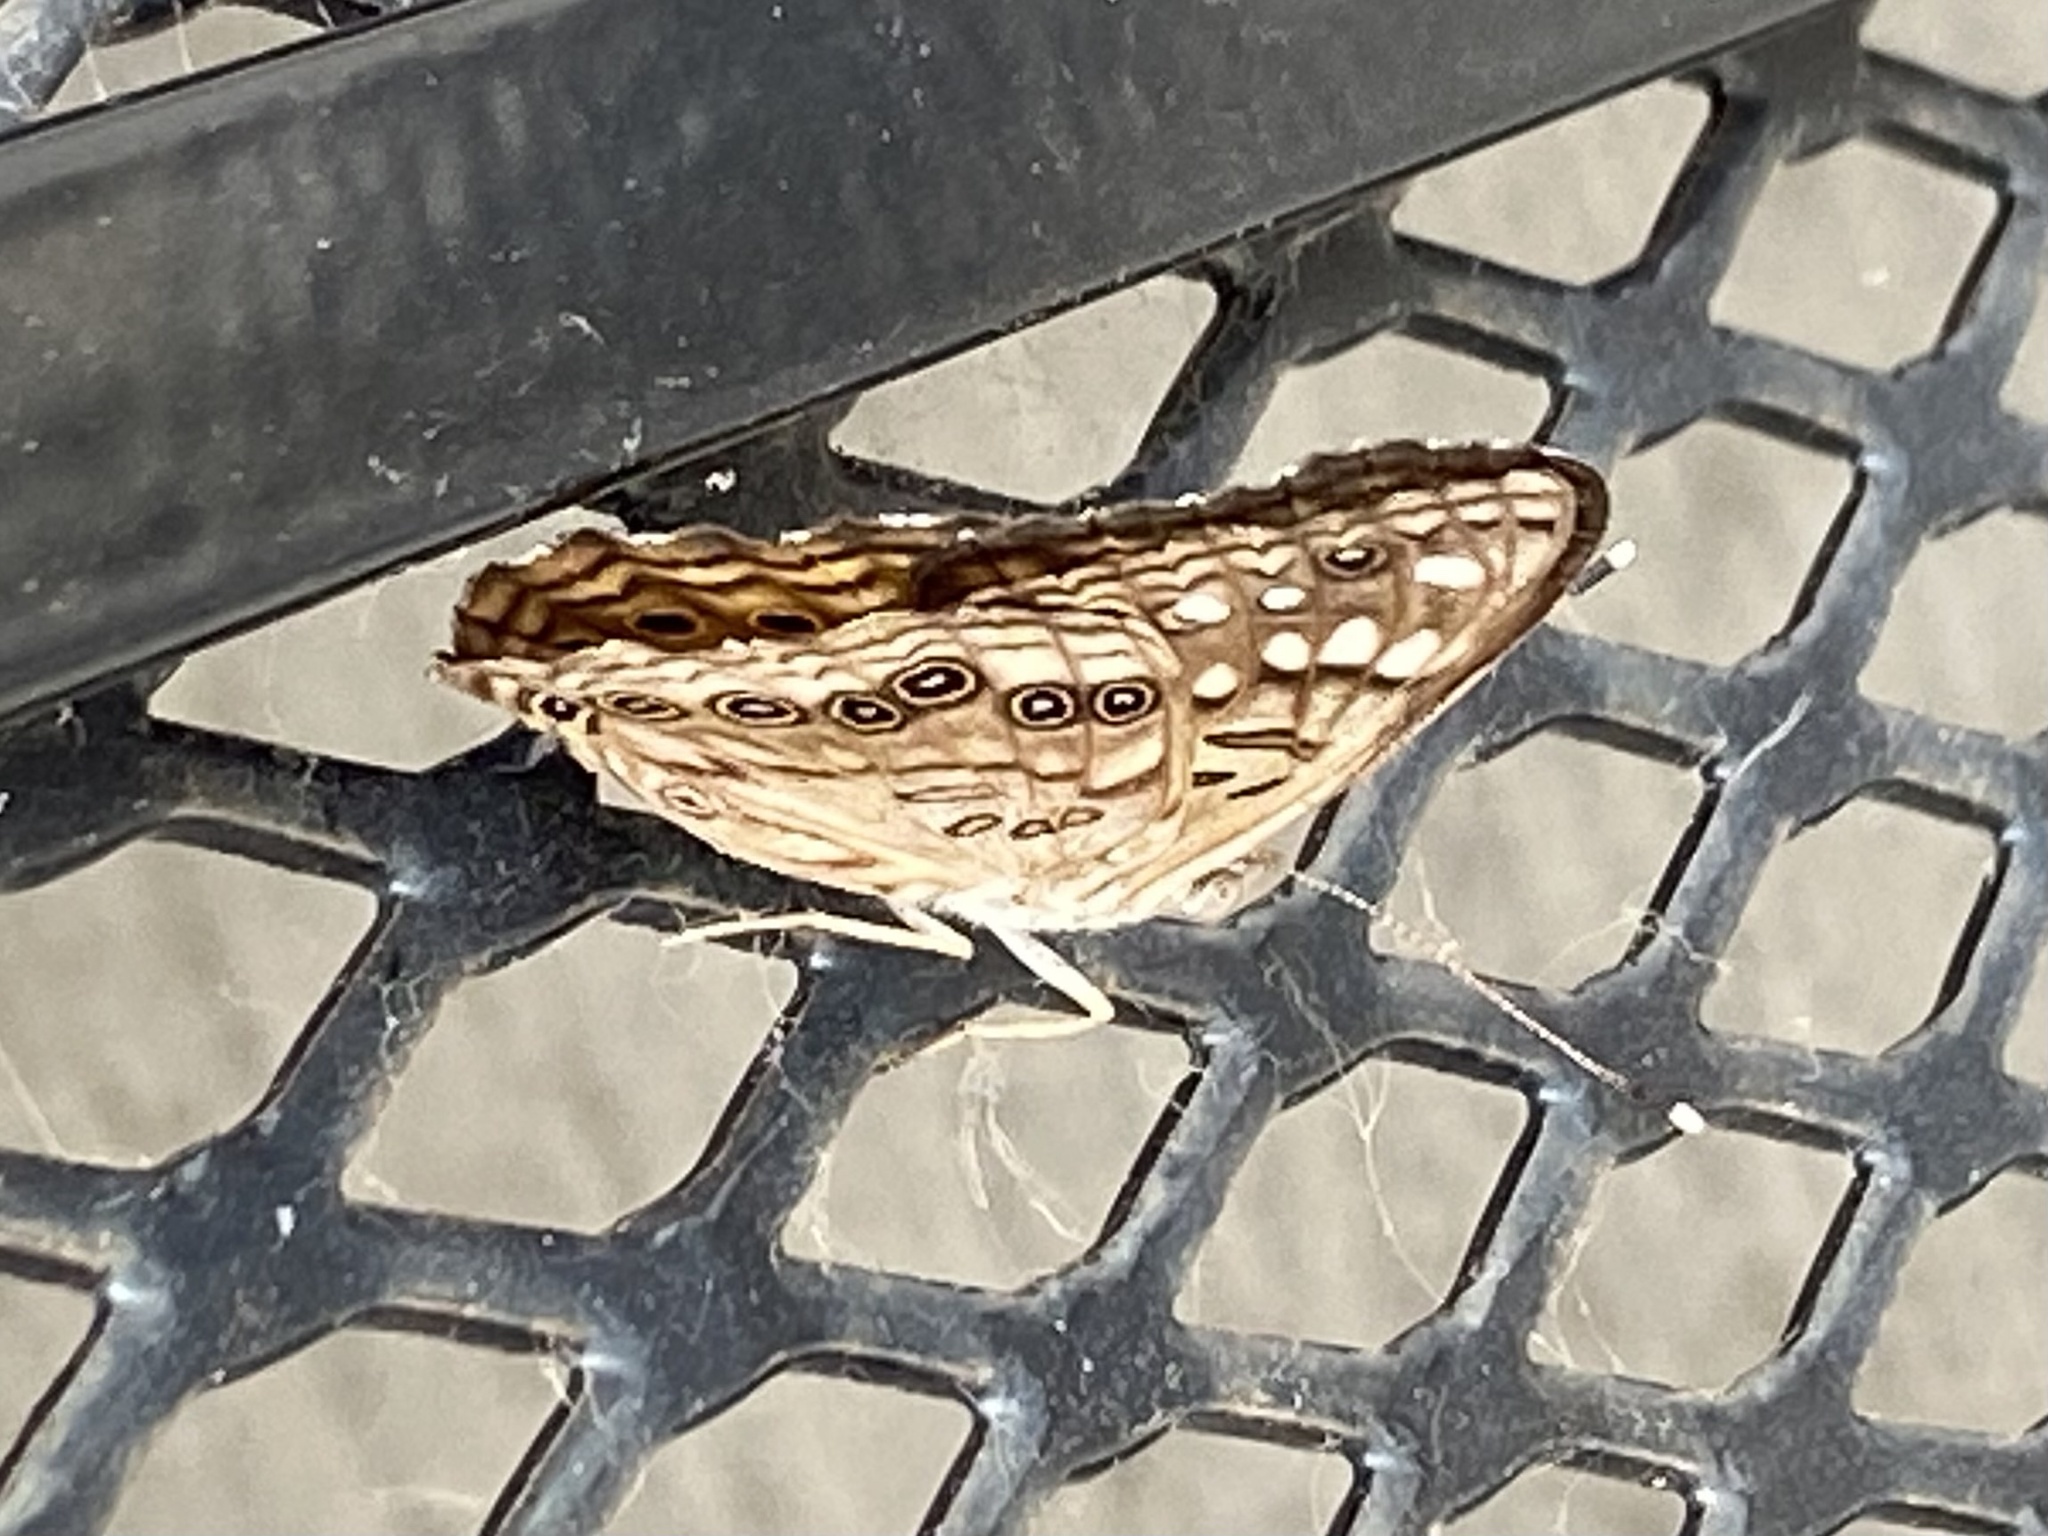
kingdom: Animalia
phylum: Arthropoda
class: Insecta
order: Lepidoptera
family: Nymphalidae
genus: Asterocampa
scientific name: Asterocampa celtis
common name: Hackberry emperor
